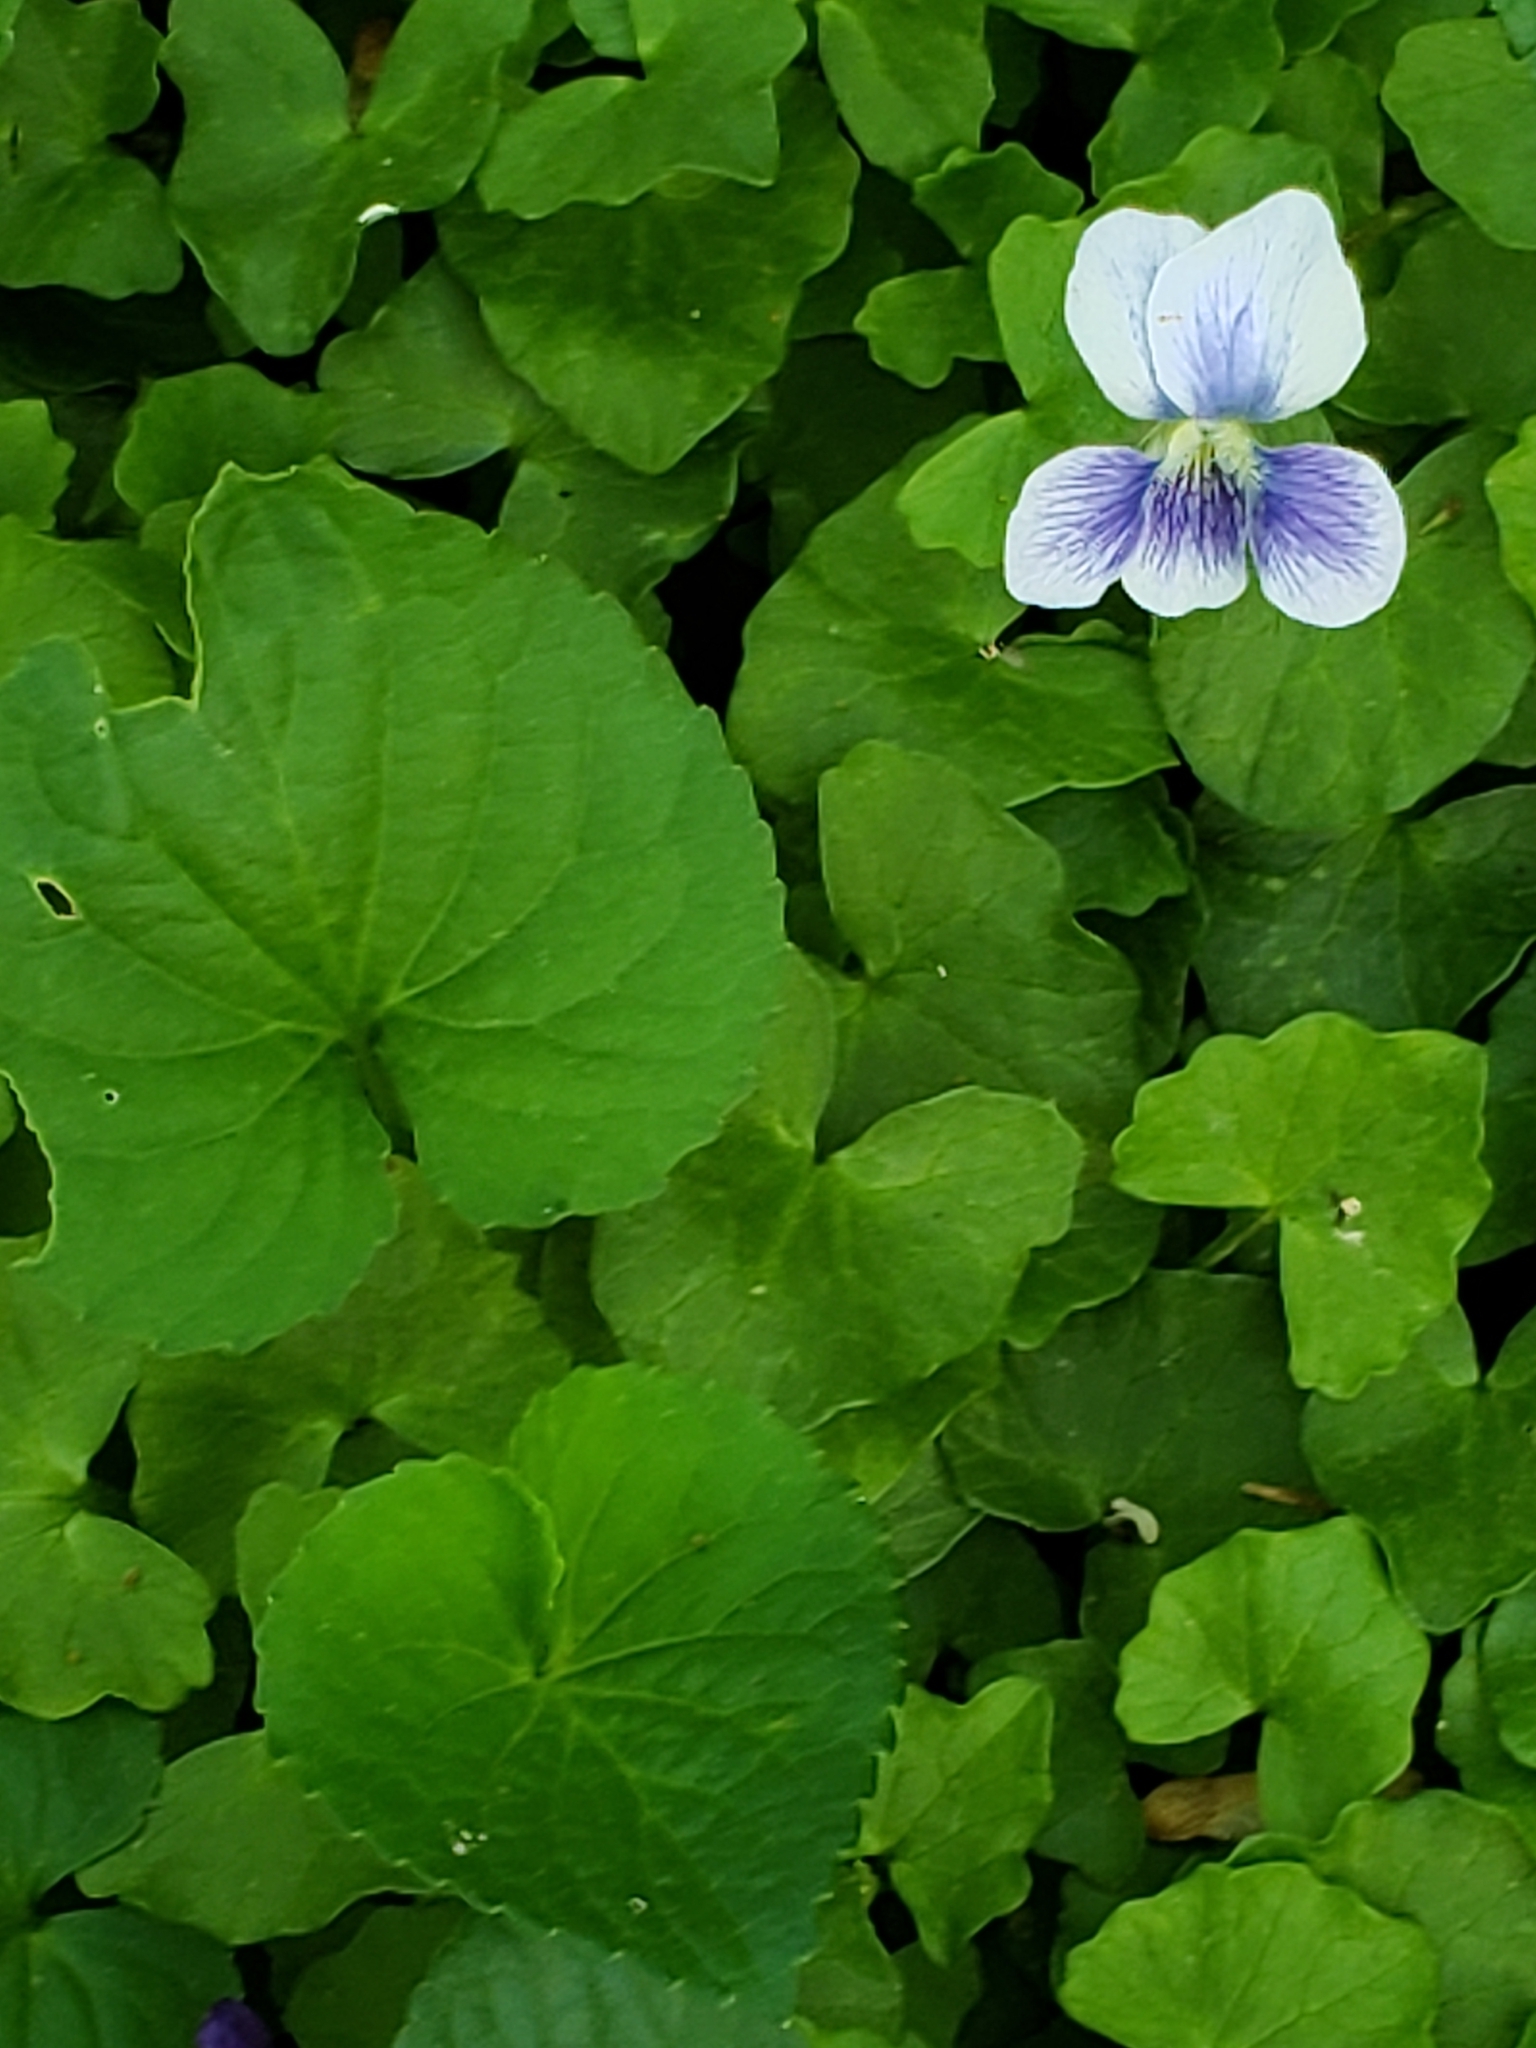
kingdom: Plantae
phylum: Tracheophyta
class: Magnoliopsida
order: Malpighiales
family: Violaceae
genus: Viola
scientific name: Viola sororia
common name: Dooryard violet
